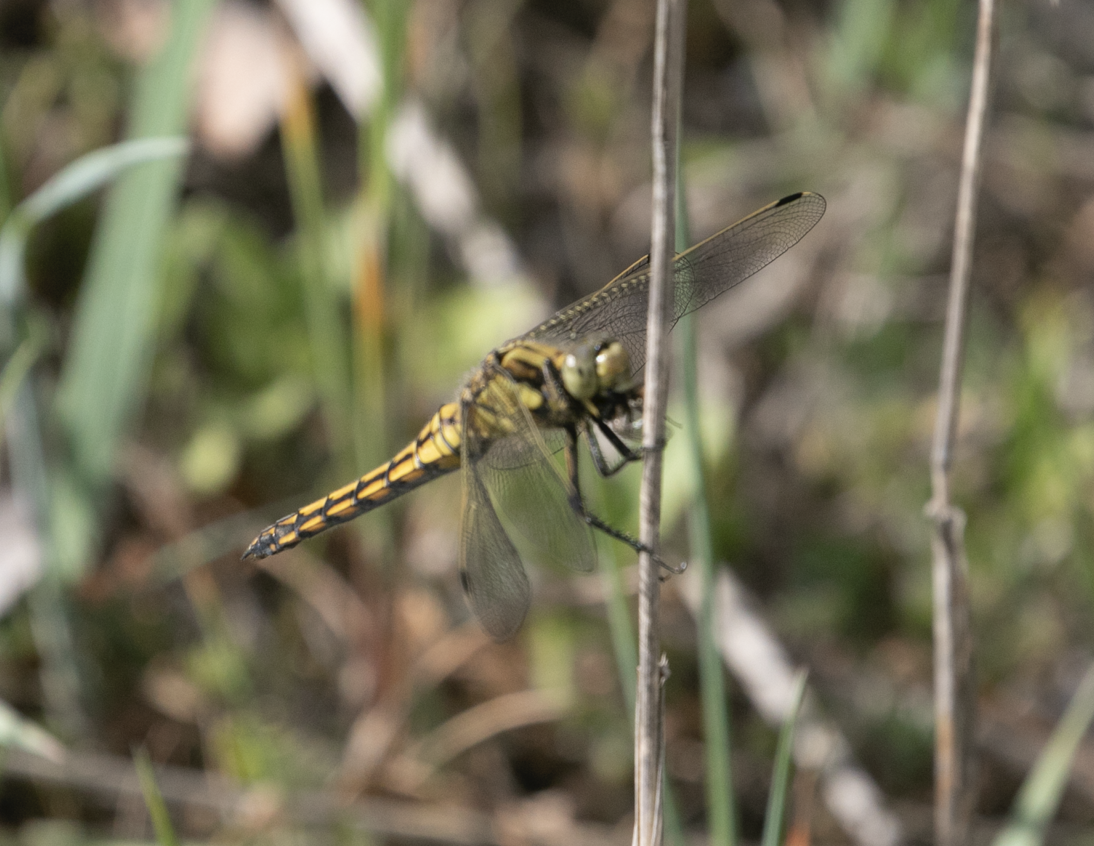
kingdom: Animalia
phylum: Arthropoda
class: Insecta
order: Odonata
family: Libellulidae
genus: Orthetrum
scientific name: Orthetrum cancellatum
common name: Black-tailed skimmer
